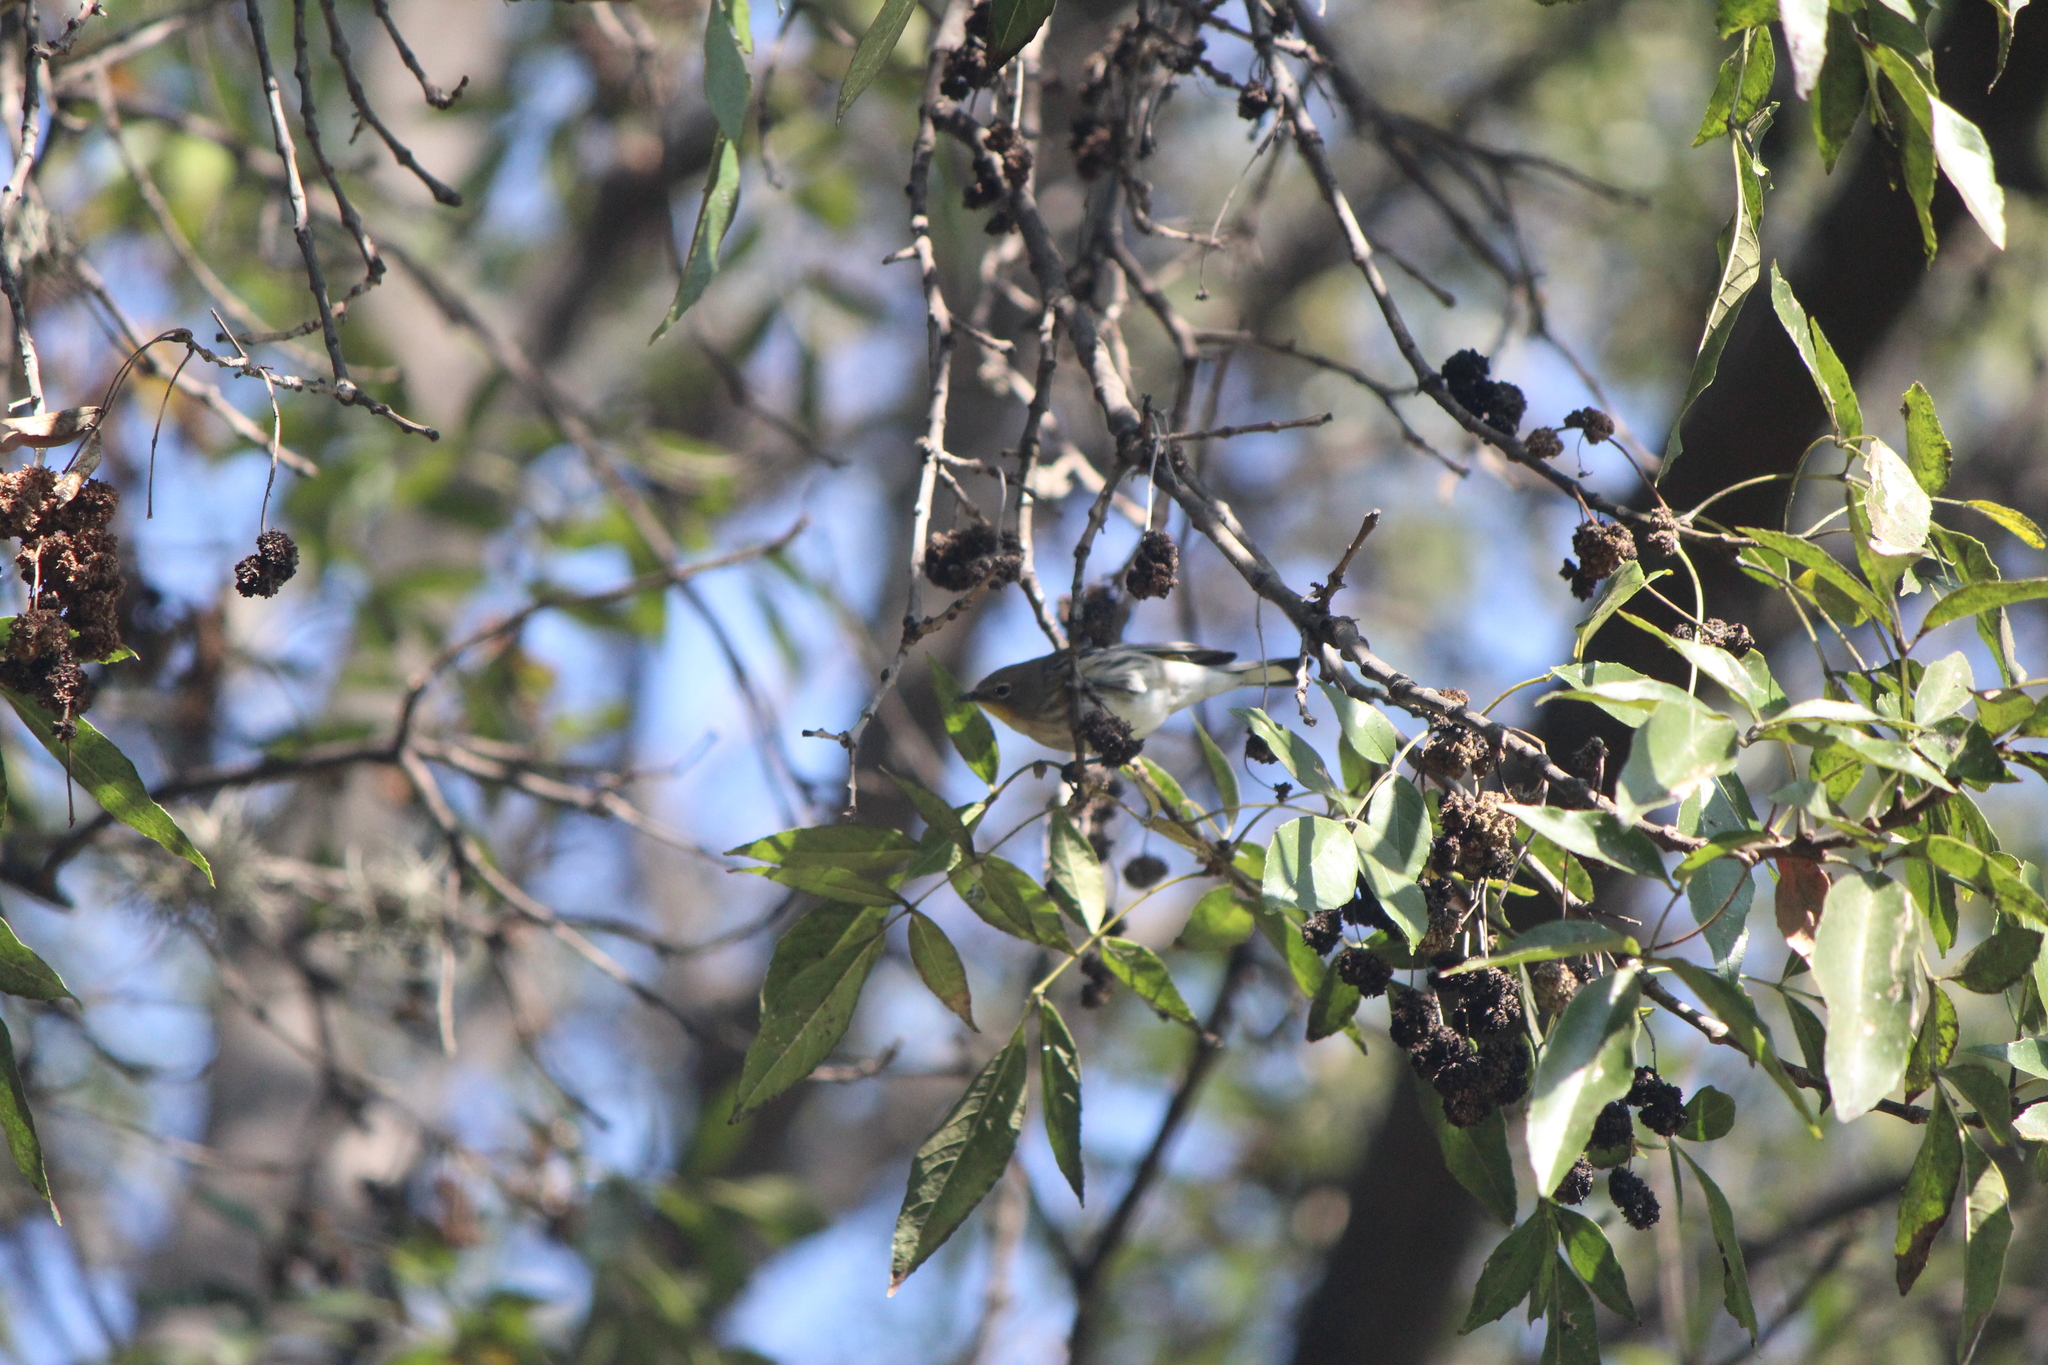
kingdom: Animalia
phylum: Chordata
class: Aves
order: Passeriformes
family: Parulidae
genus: Setophaga
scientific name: Setophaga auduboni
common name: Audubon's warbler
